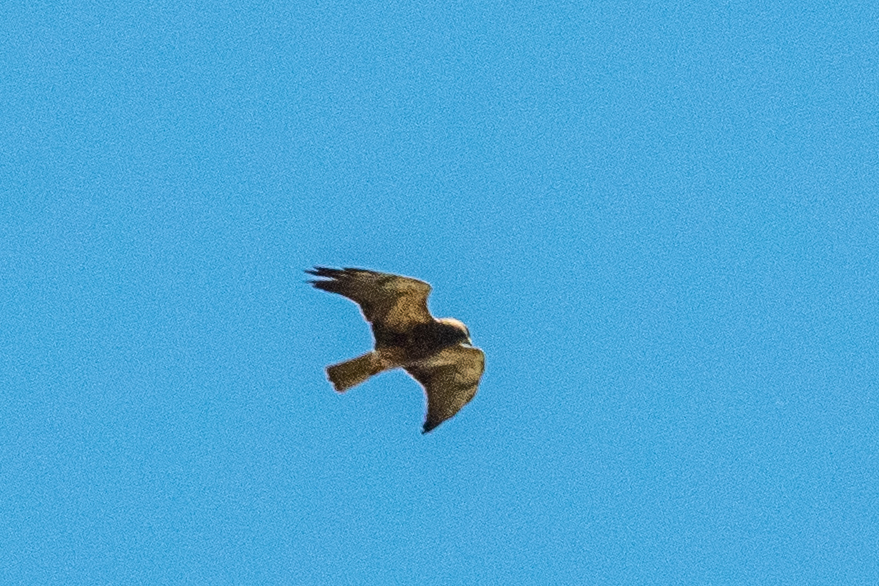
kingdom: Animalia
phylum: Chordata
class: Aves
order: Accipitriformes
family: Accipitridae
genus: Buteo
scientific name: Buteo swainsoni
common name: Swainson's hawk
